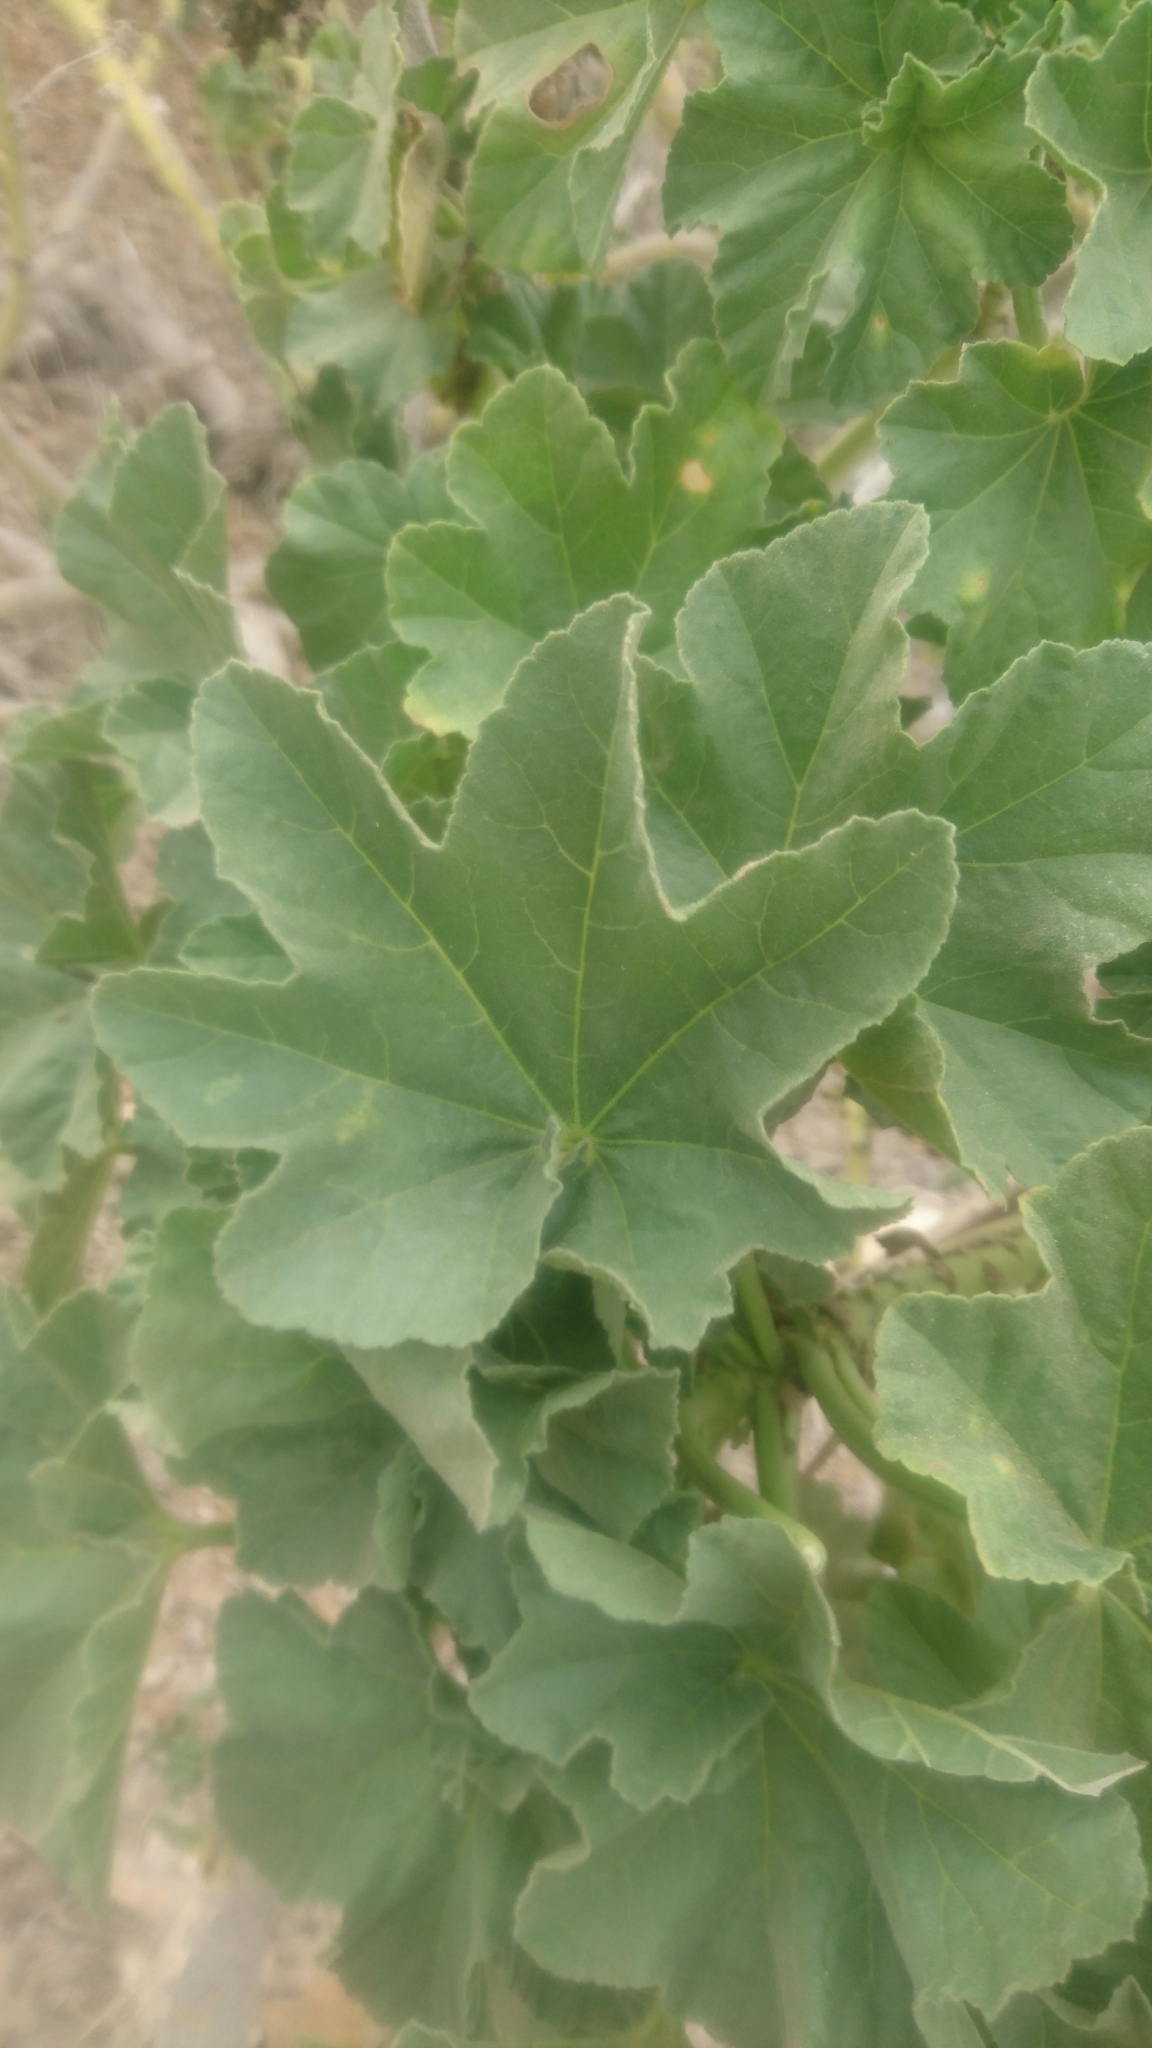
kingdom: Plantae
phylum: Tracheophyta
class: Magnoliopsida
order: Malvales
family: Malvaceae
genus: Malva
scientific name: Malva arborea
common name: Tree mallow
